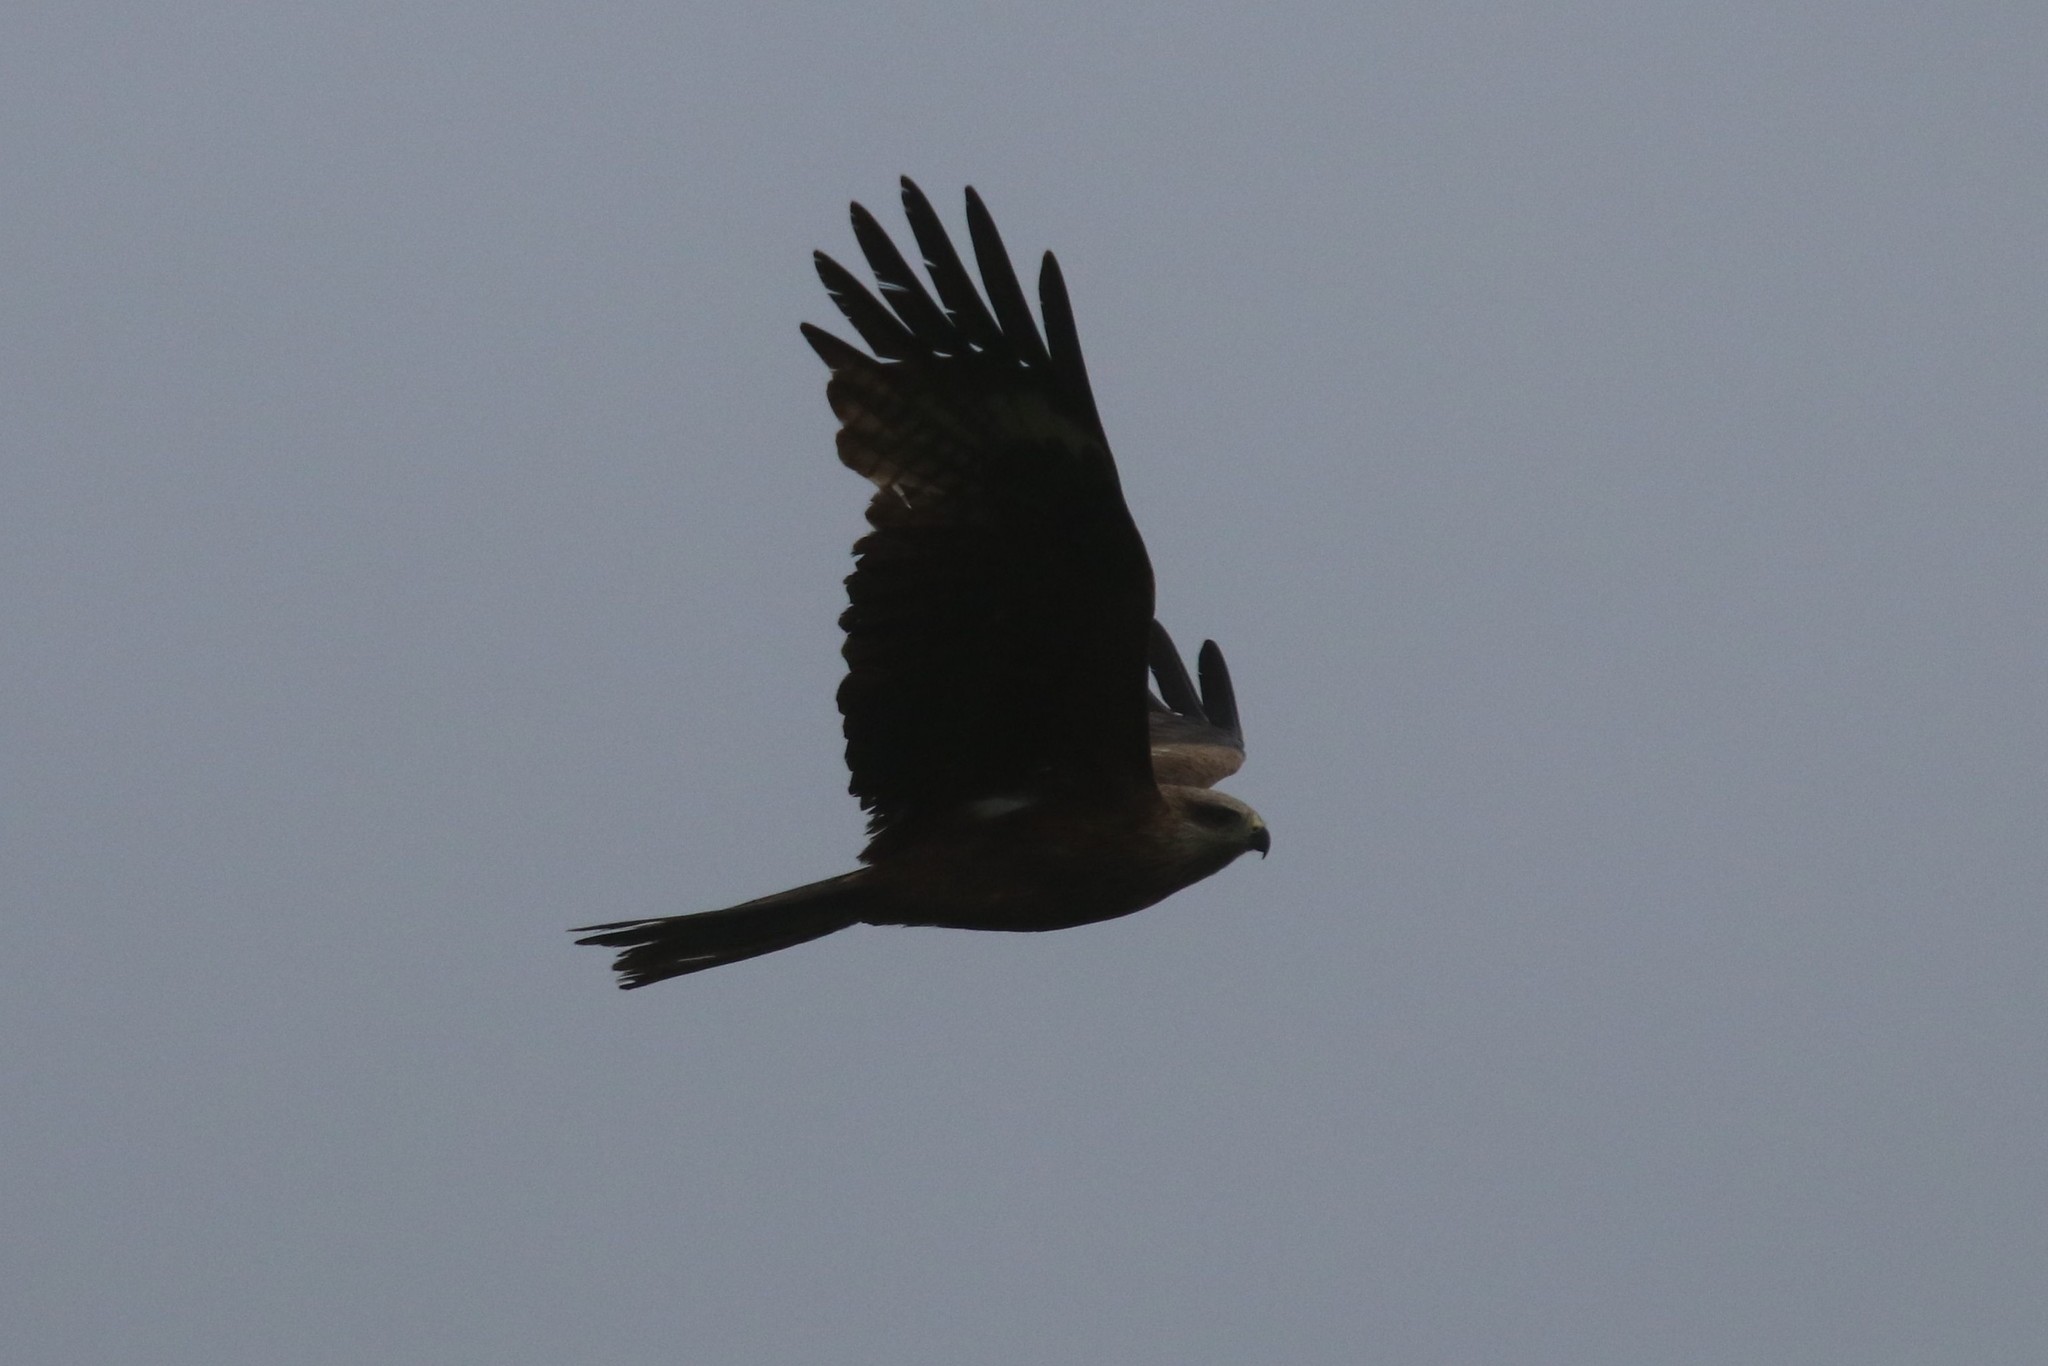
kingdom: Animalia
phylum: Chordata
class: Aves
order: Accipitriformes
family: Accipitridae
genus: Milvus
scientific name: Milvus migrans
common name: Black kite
